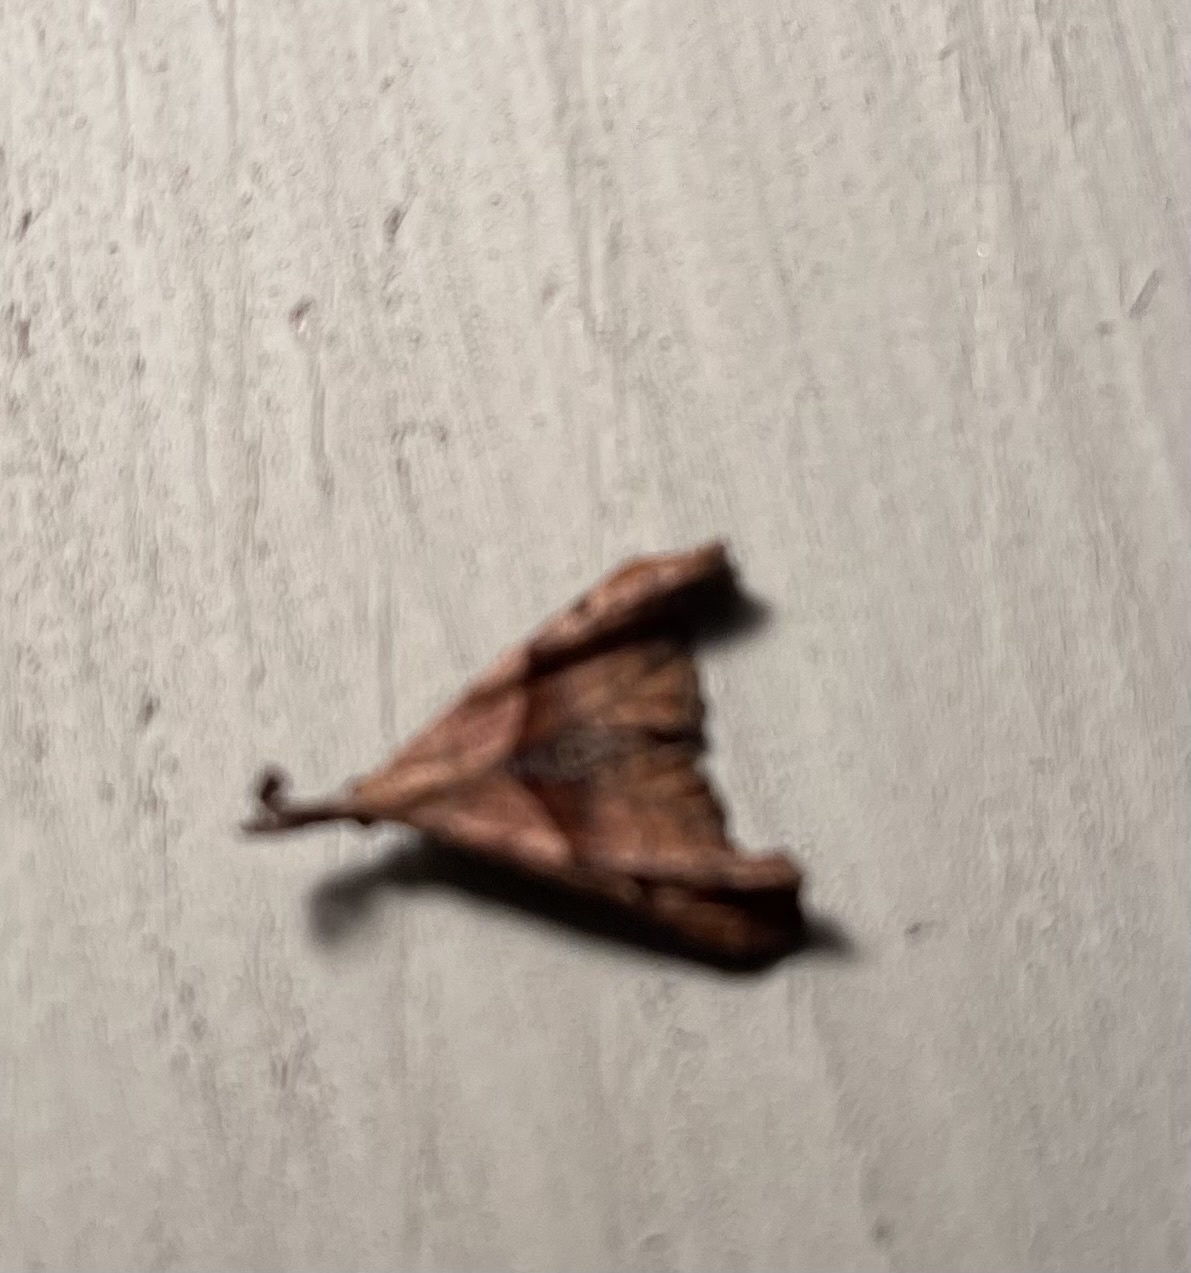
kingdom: Animalia
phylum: Arthropoda
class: Insecta
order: Lepidoptera
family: Erebidae
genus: Palthis
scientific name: Palthis angulalis
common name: Dark-spotted palthis moth
